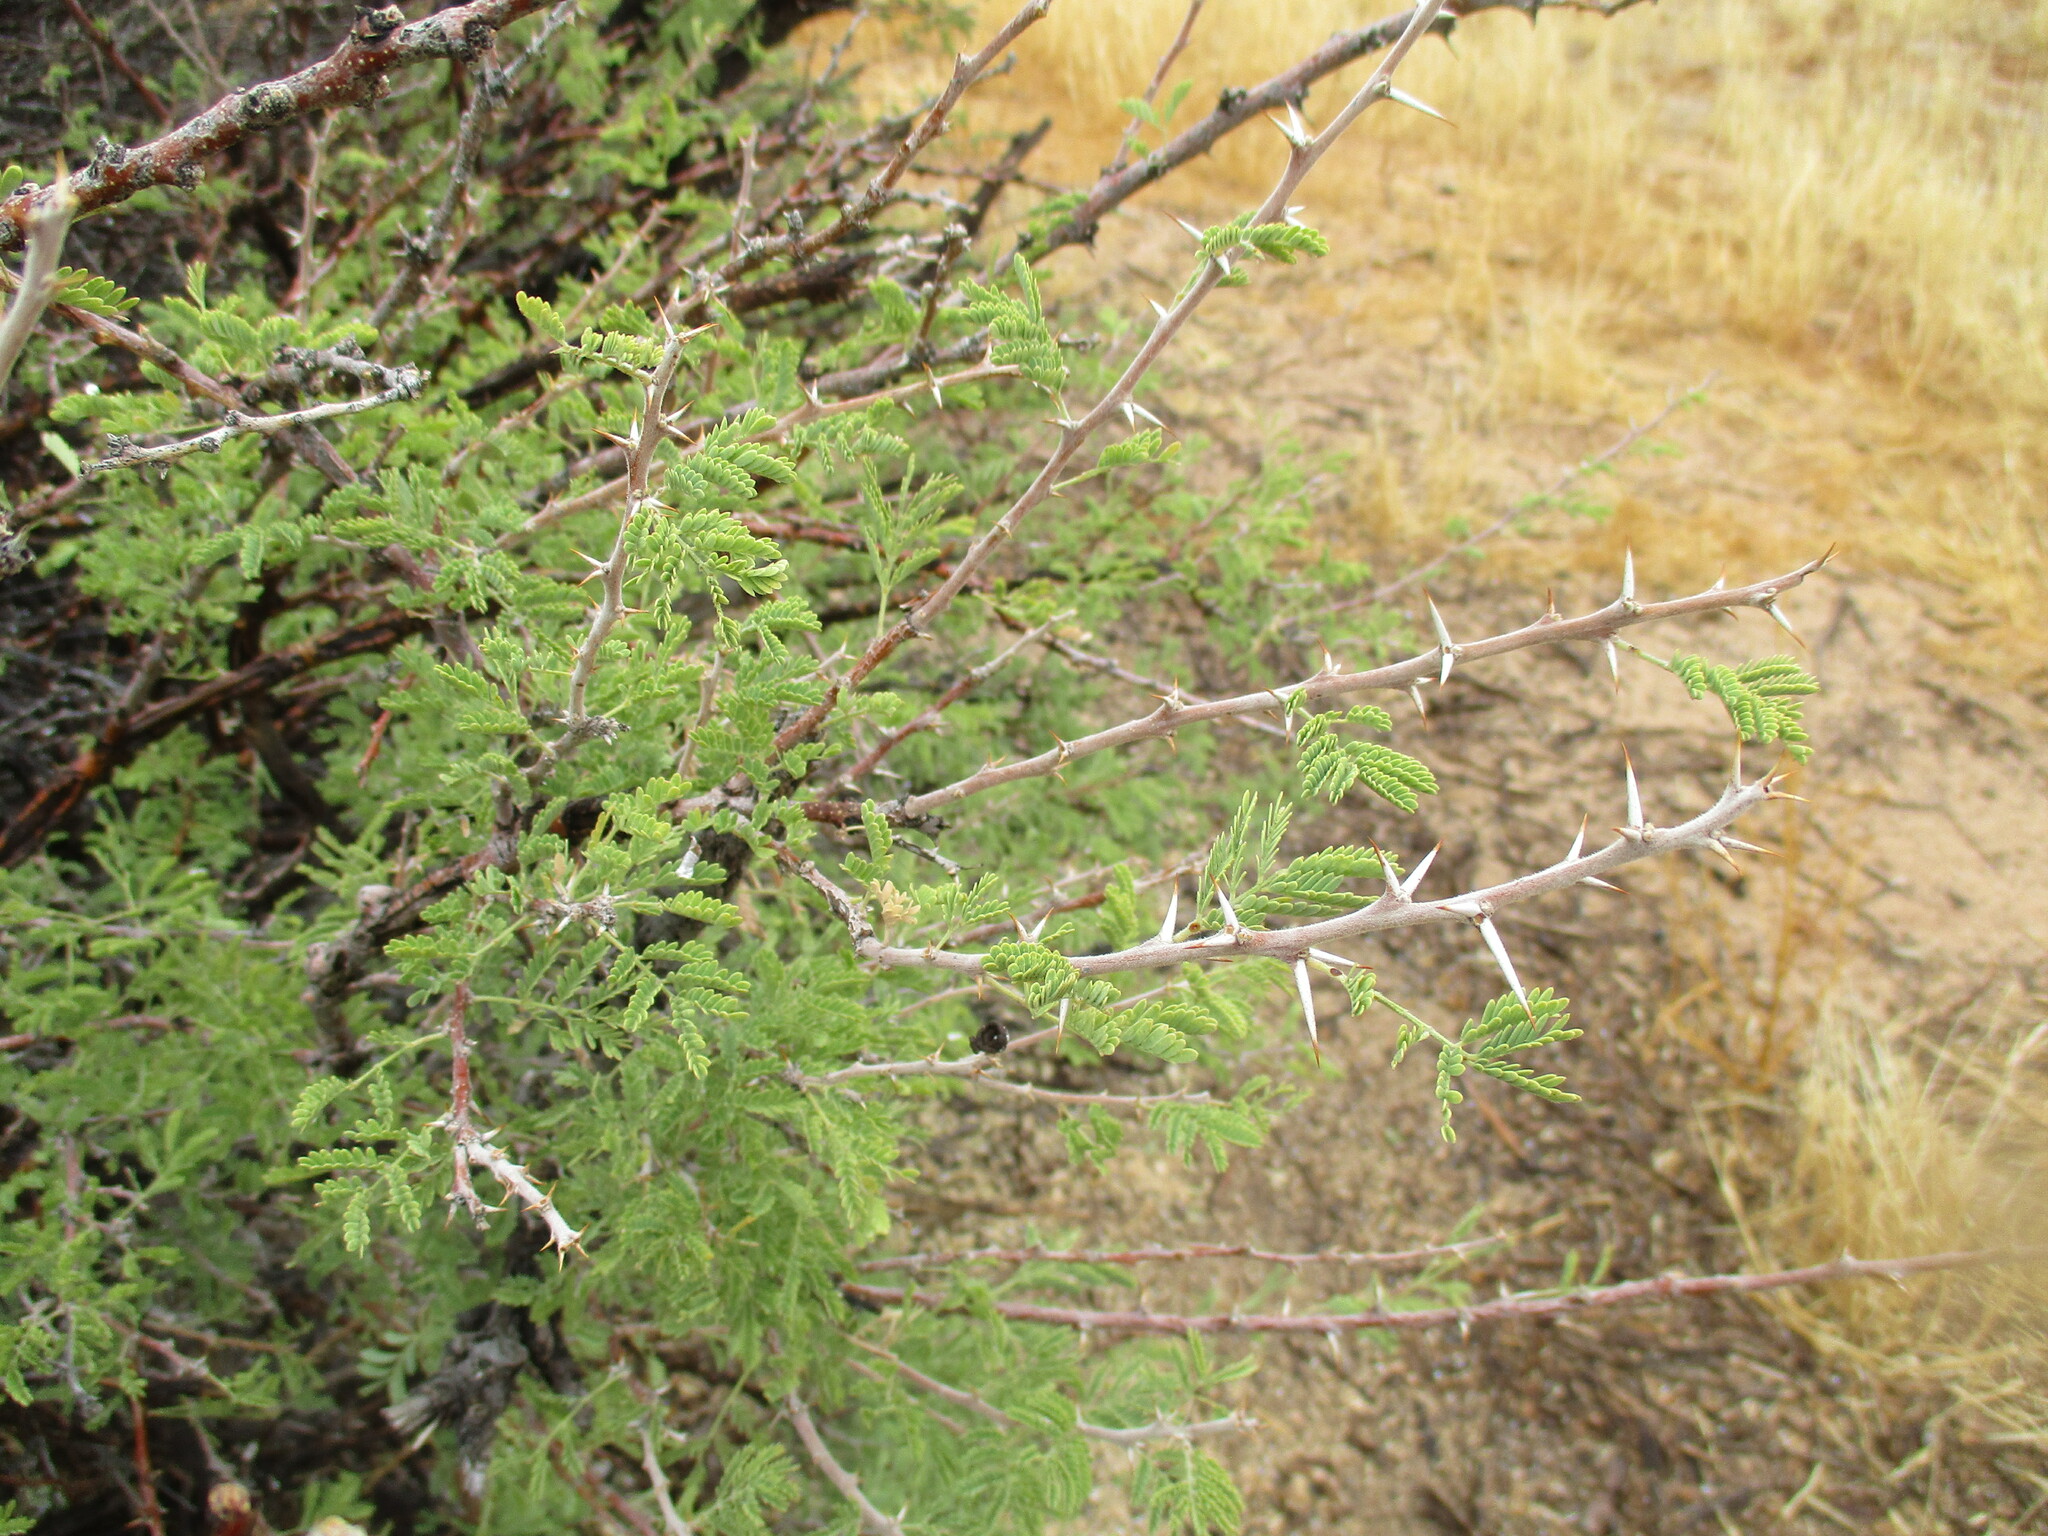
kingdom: Plantae
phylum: Tracheophyta
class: Magnoliopsida
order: Fabales
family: Fabaceae
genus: Vachellia
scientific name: Vachellia hebeclada
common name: Candle thorn
